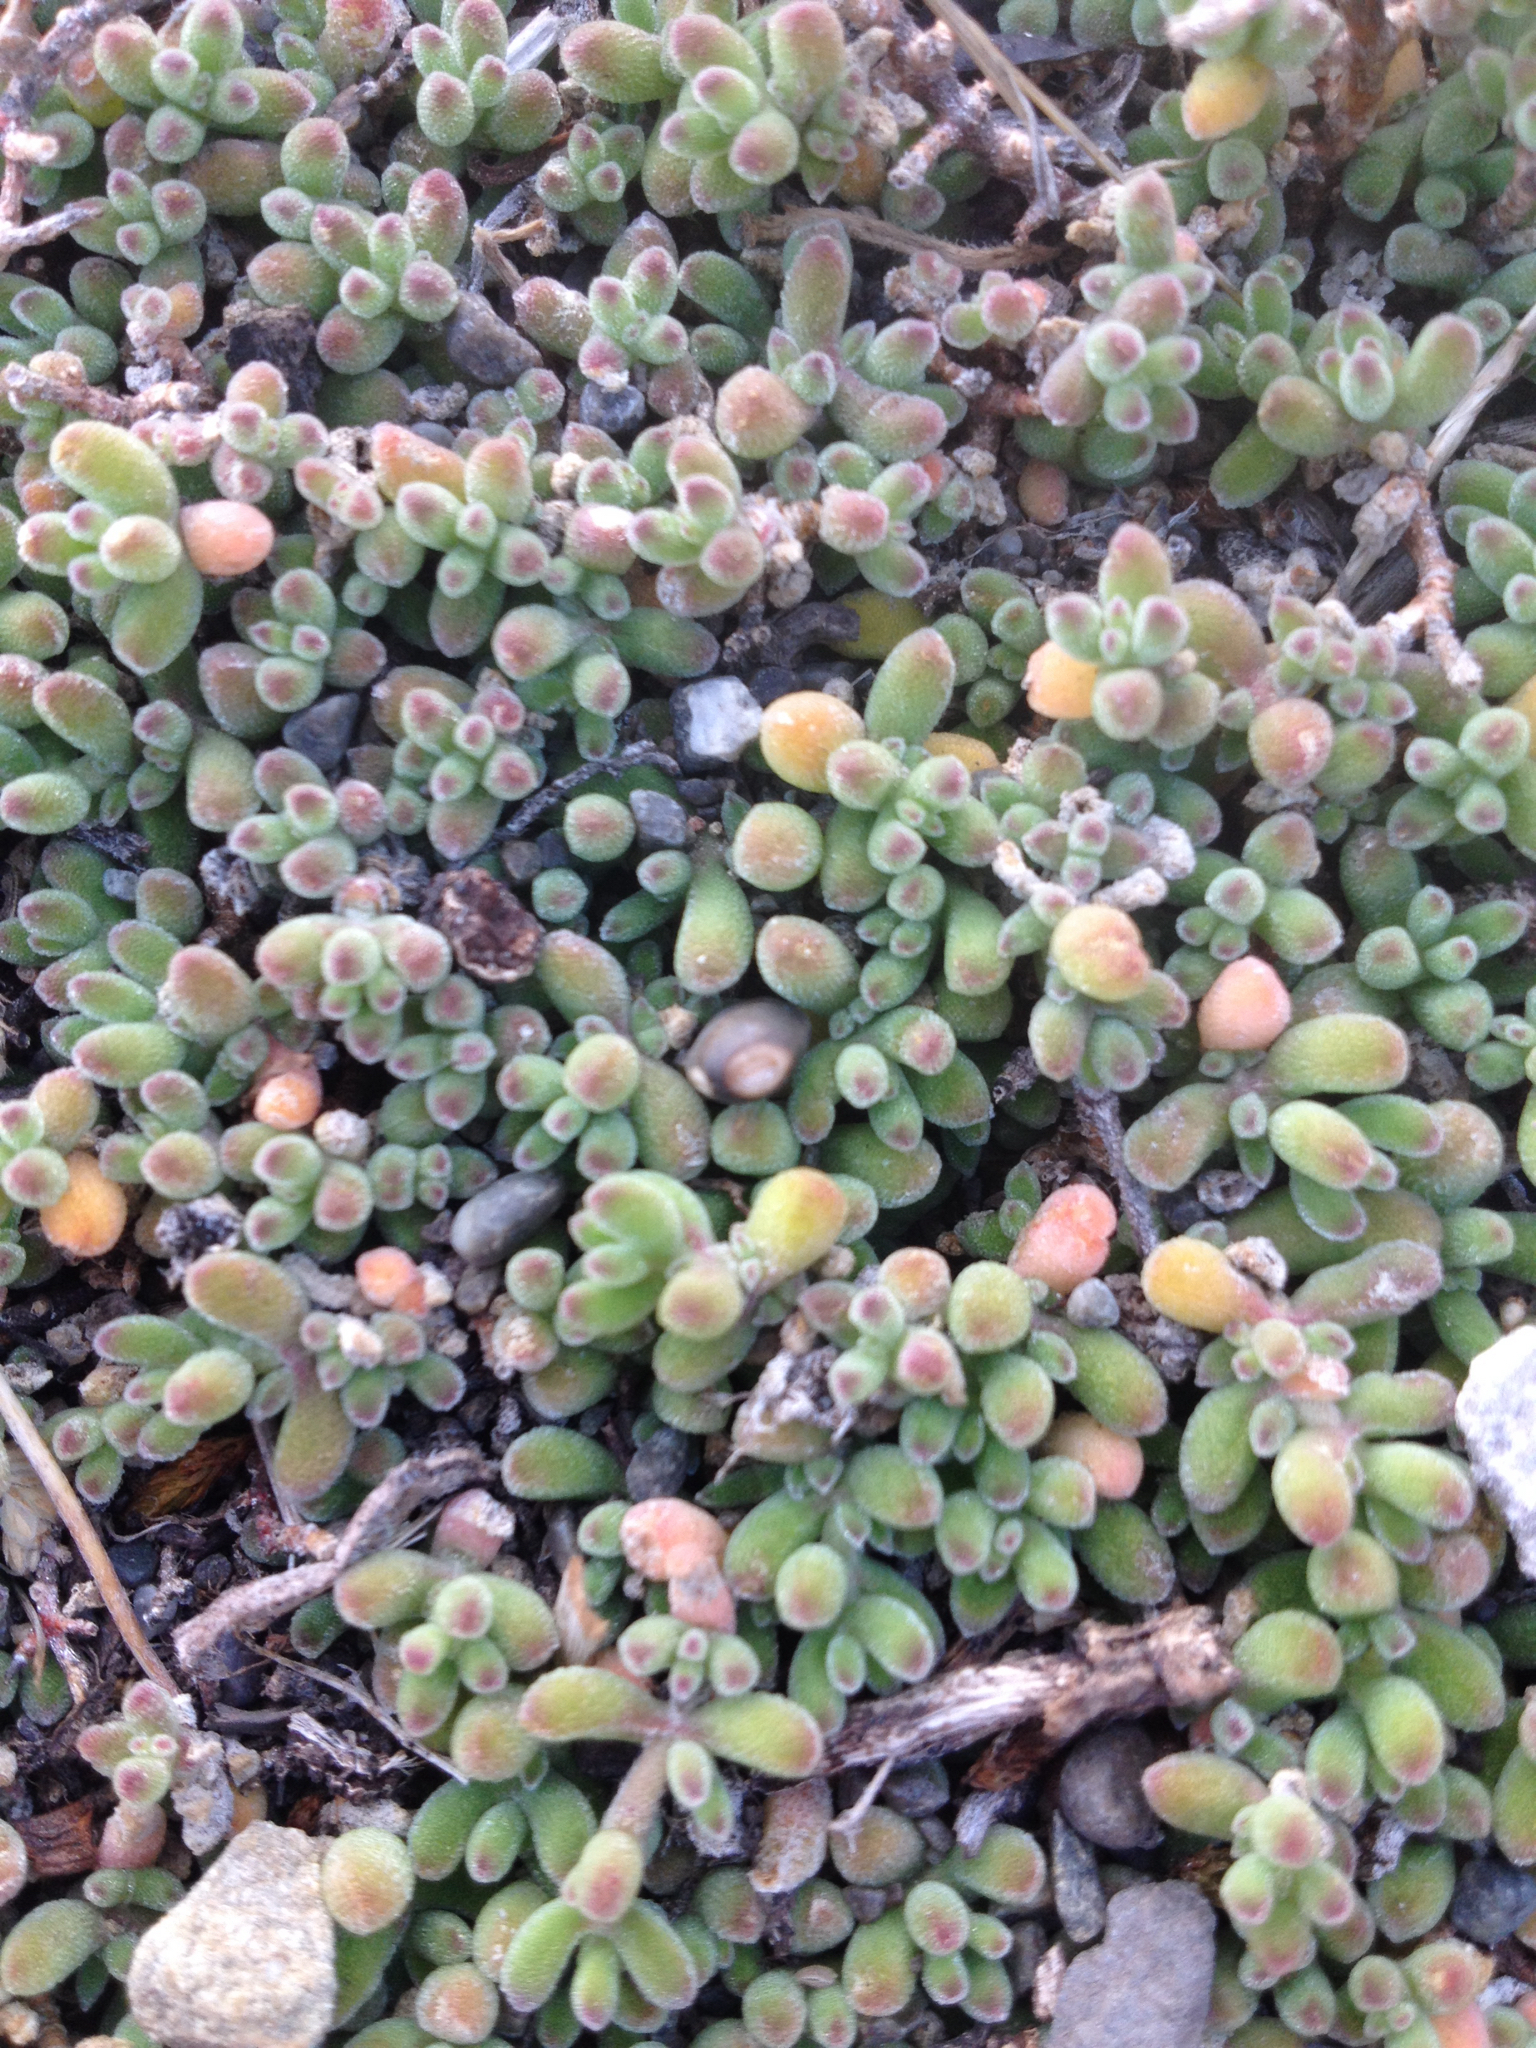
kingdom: Plantae
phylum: Tracheophyta
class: Magnoliopsida
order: Caryophyllales
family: Aizoaceae
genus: Drosanthemum
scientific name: Drosanthemum floribundum
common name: Pale dewplant
